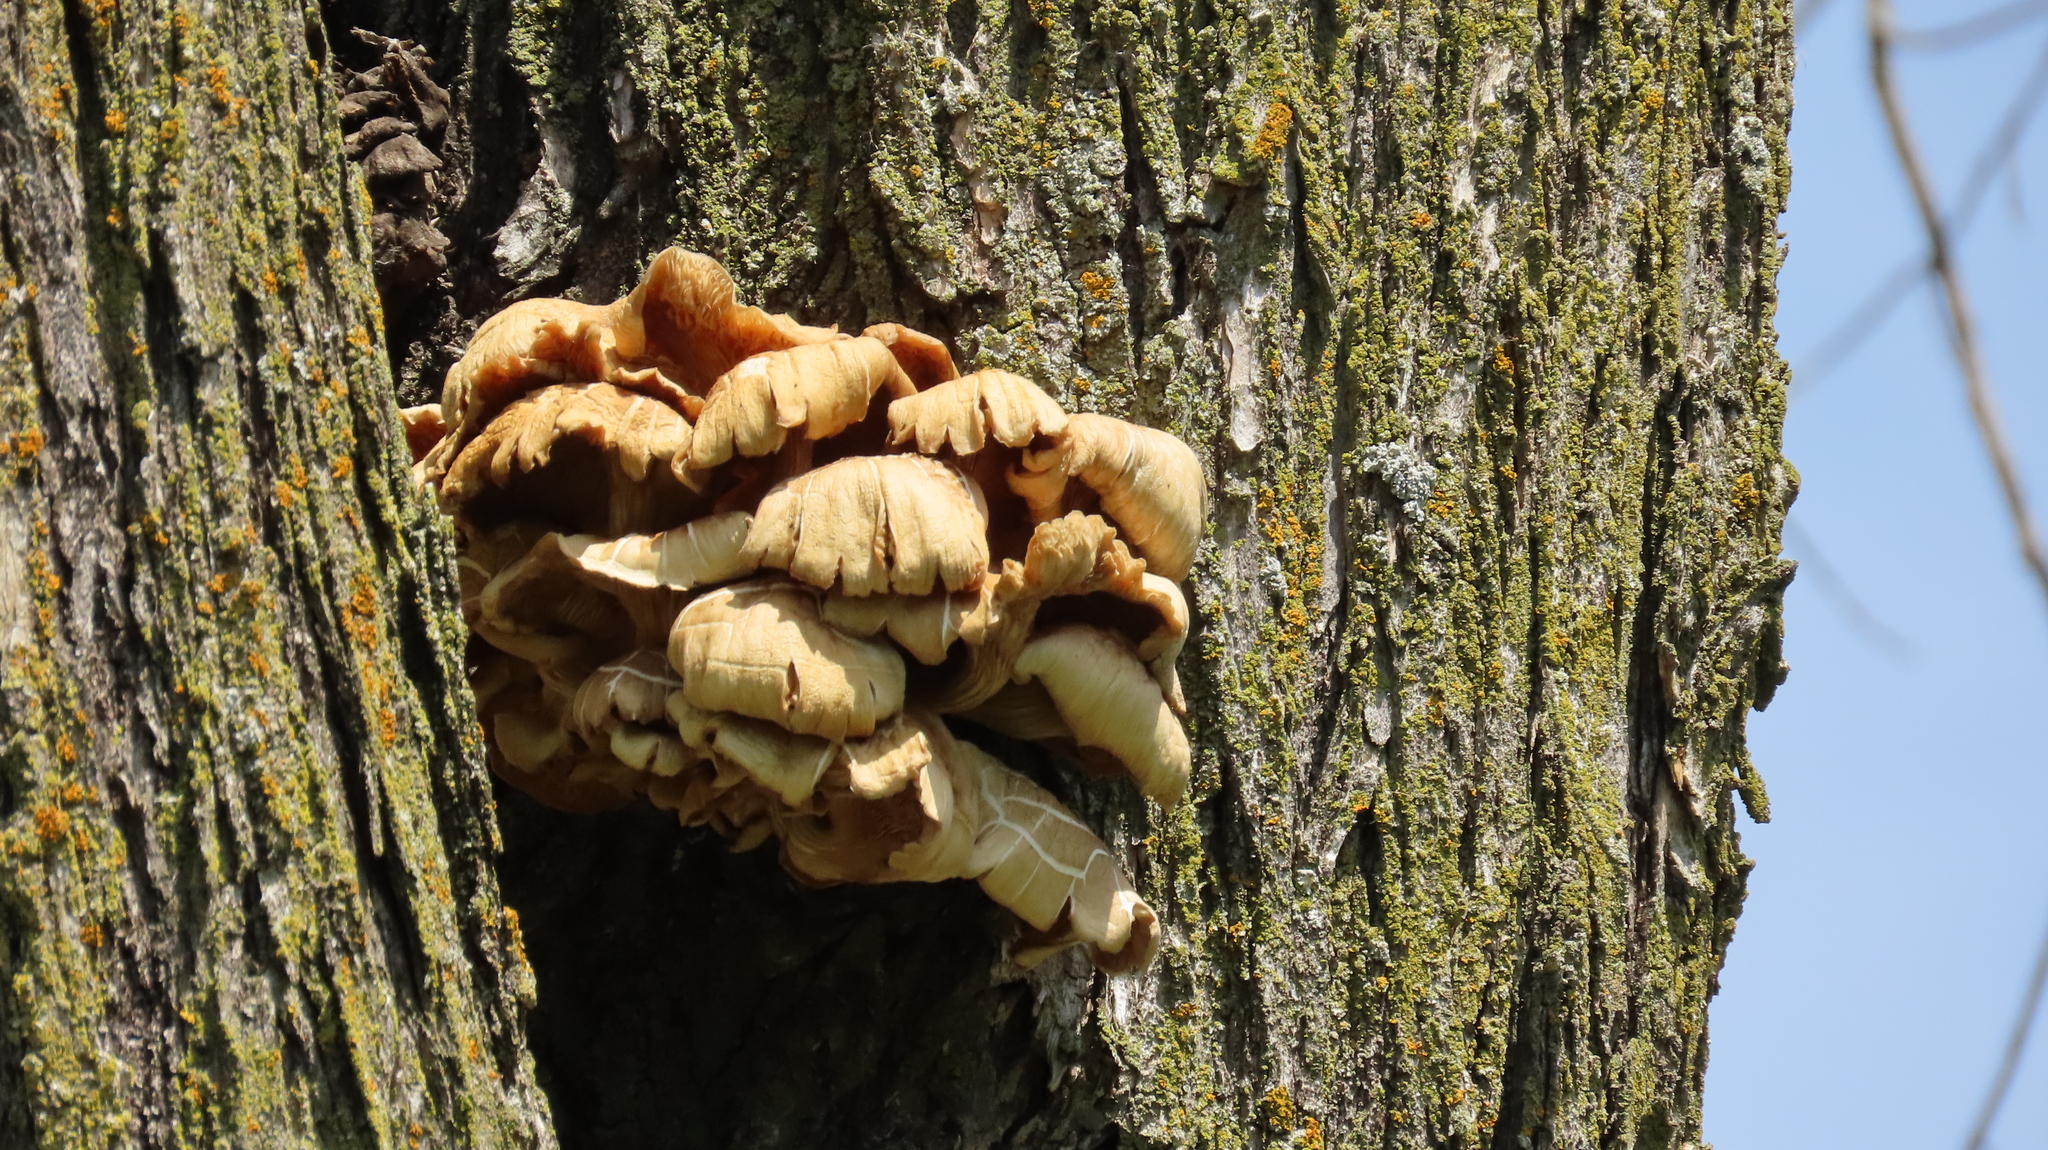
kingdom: Fungi
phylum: Basidiomycota
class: Agaricomycetes
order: Agaricales
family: Pleurotaceae
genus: Pleurotus
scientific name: Pleurotus citrinopileatus
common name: Golden oyster mushroom
